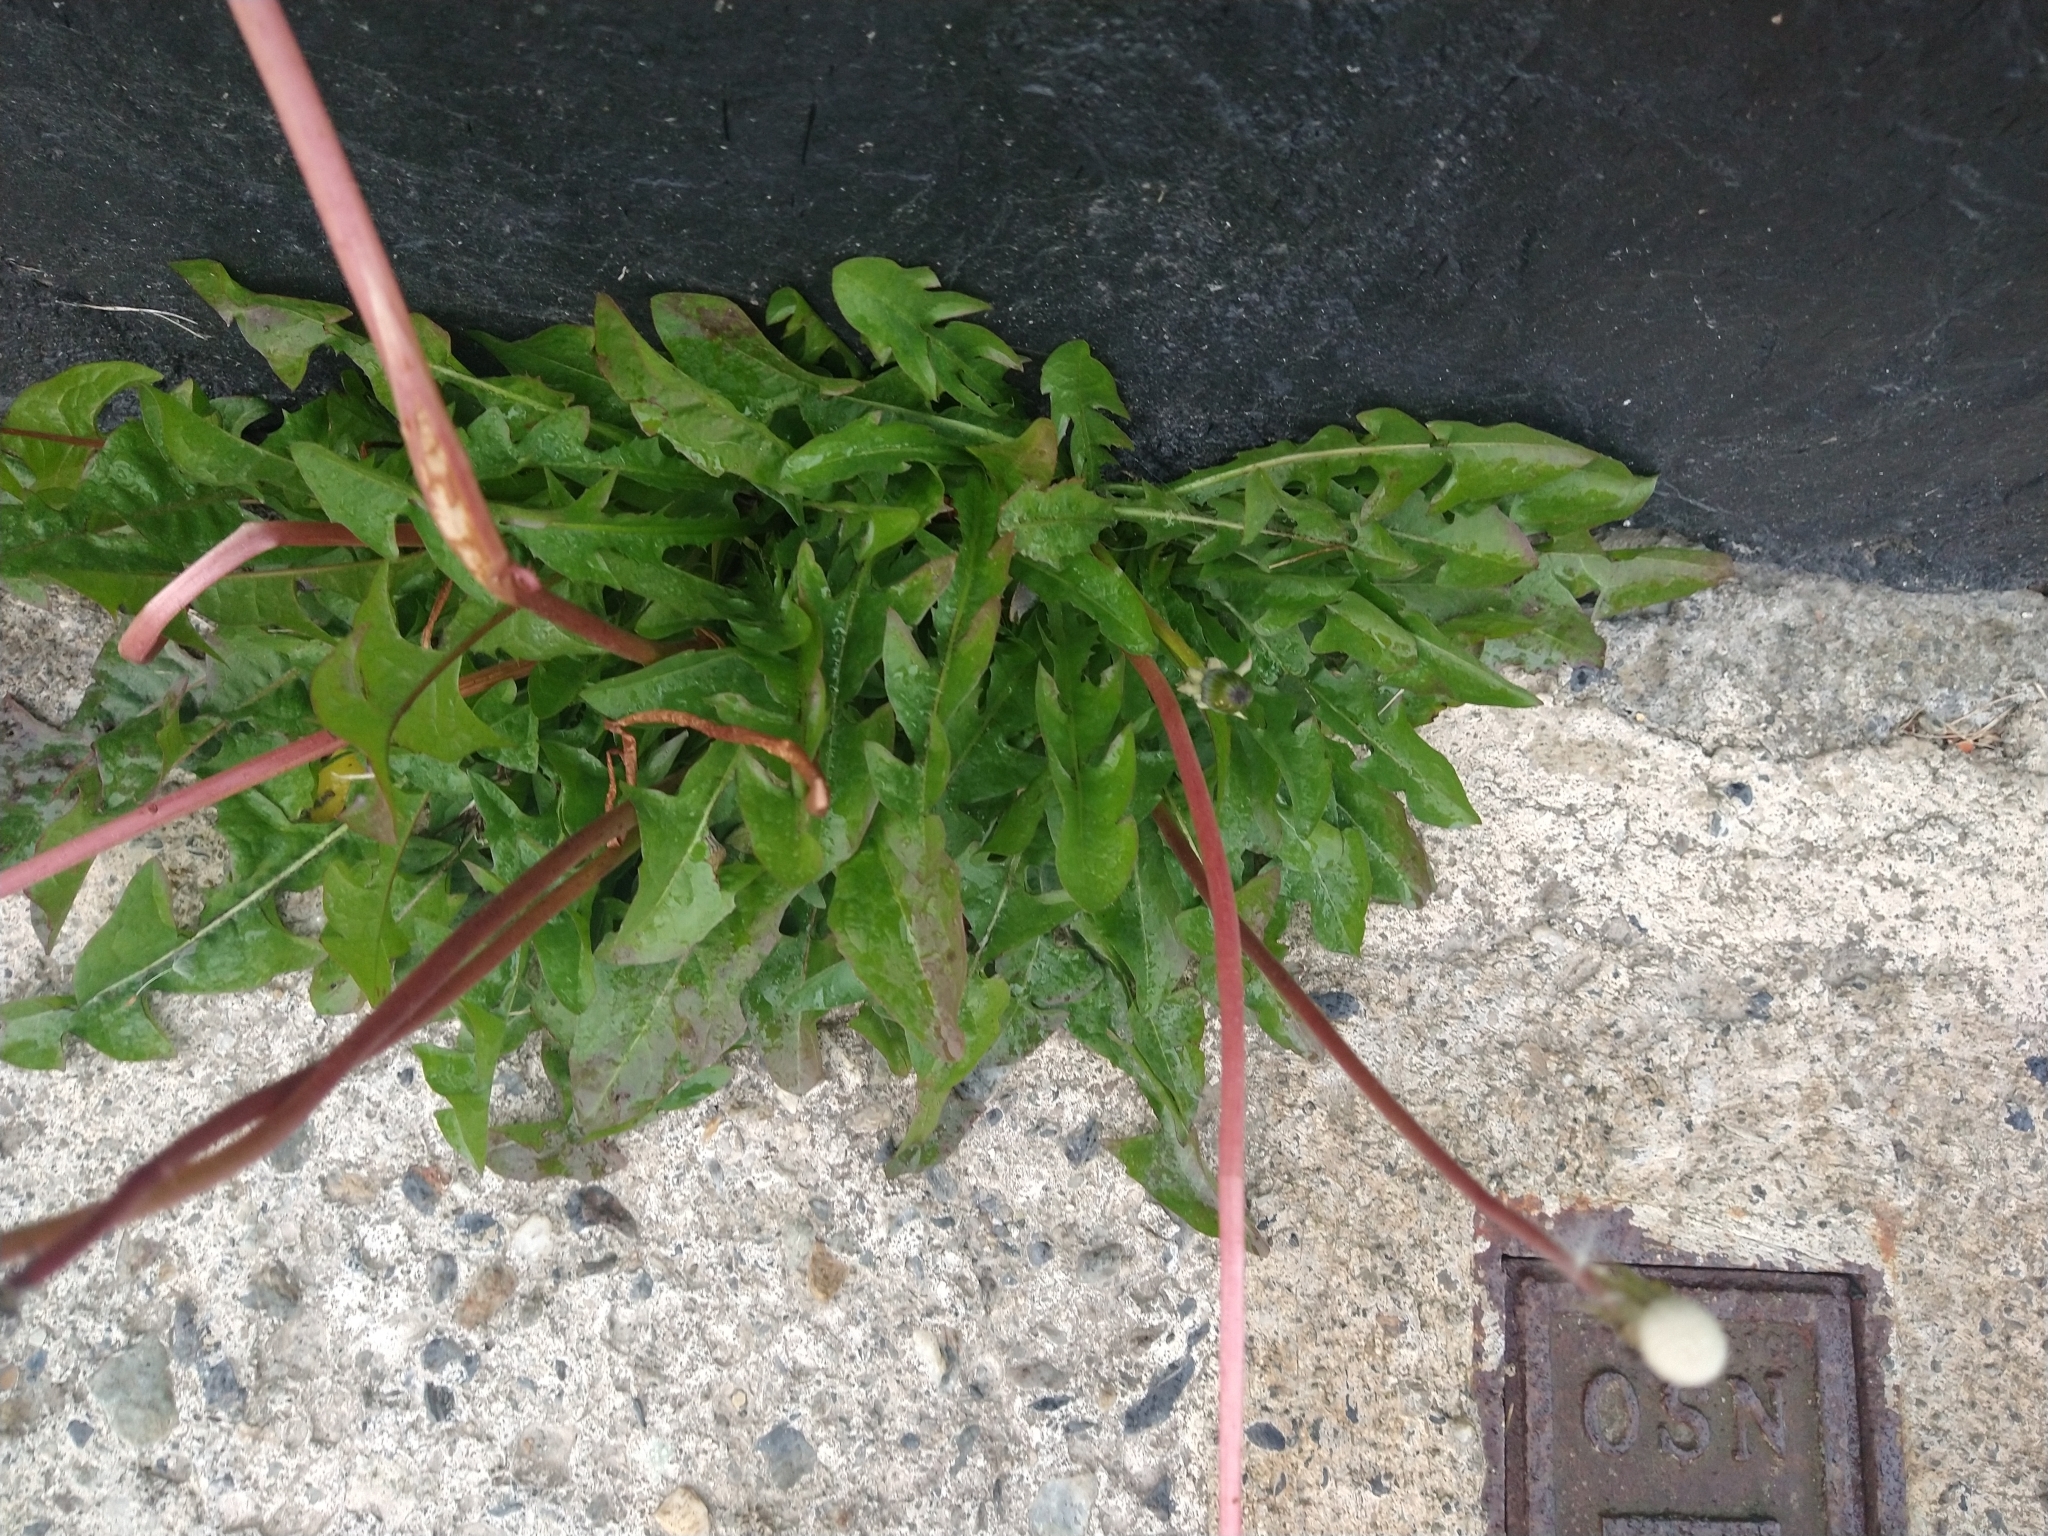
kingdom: Plantae
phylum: Tracheophyta
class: Magnoliopsida
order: Asterales
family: Asteraceae
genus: Taraxacum
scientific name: Taraxacum officinale
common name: Common dandelion
